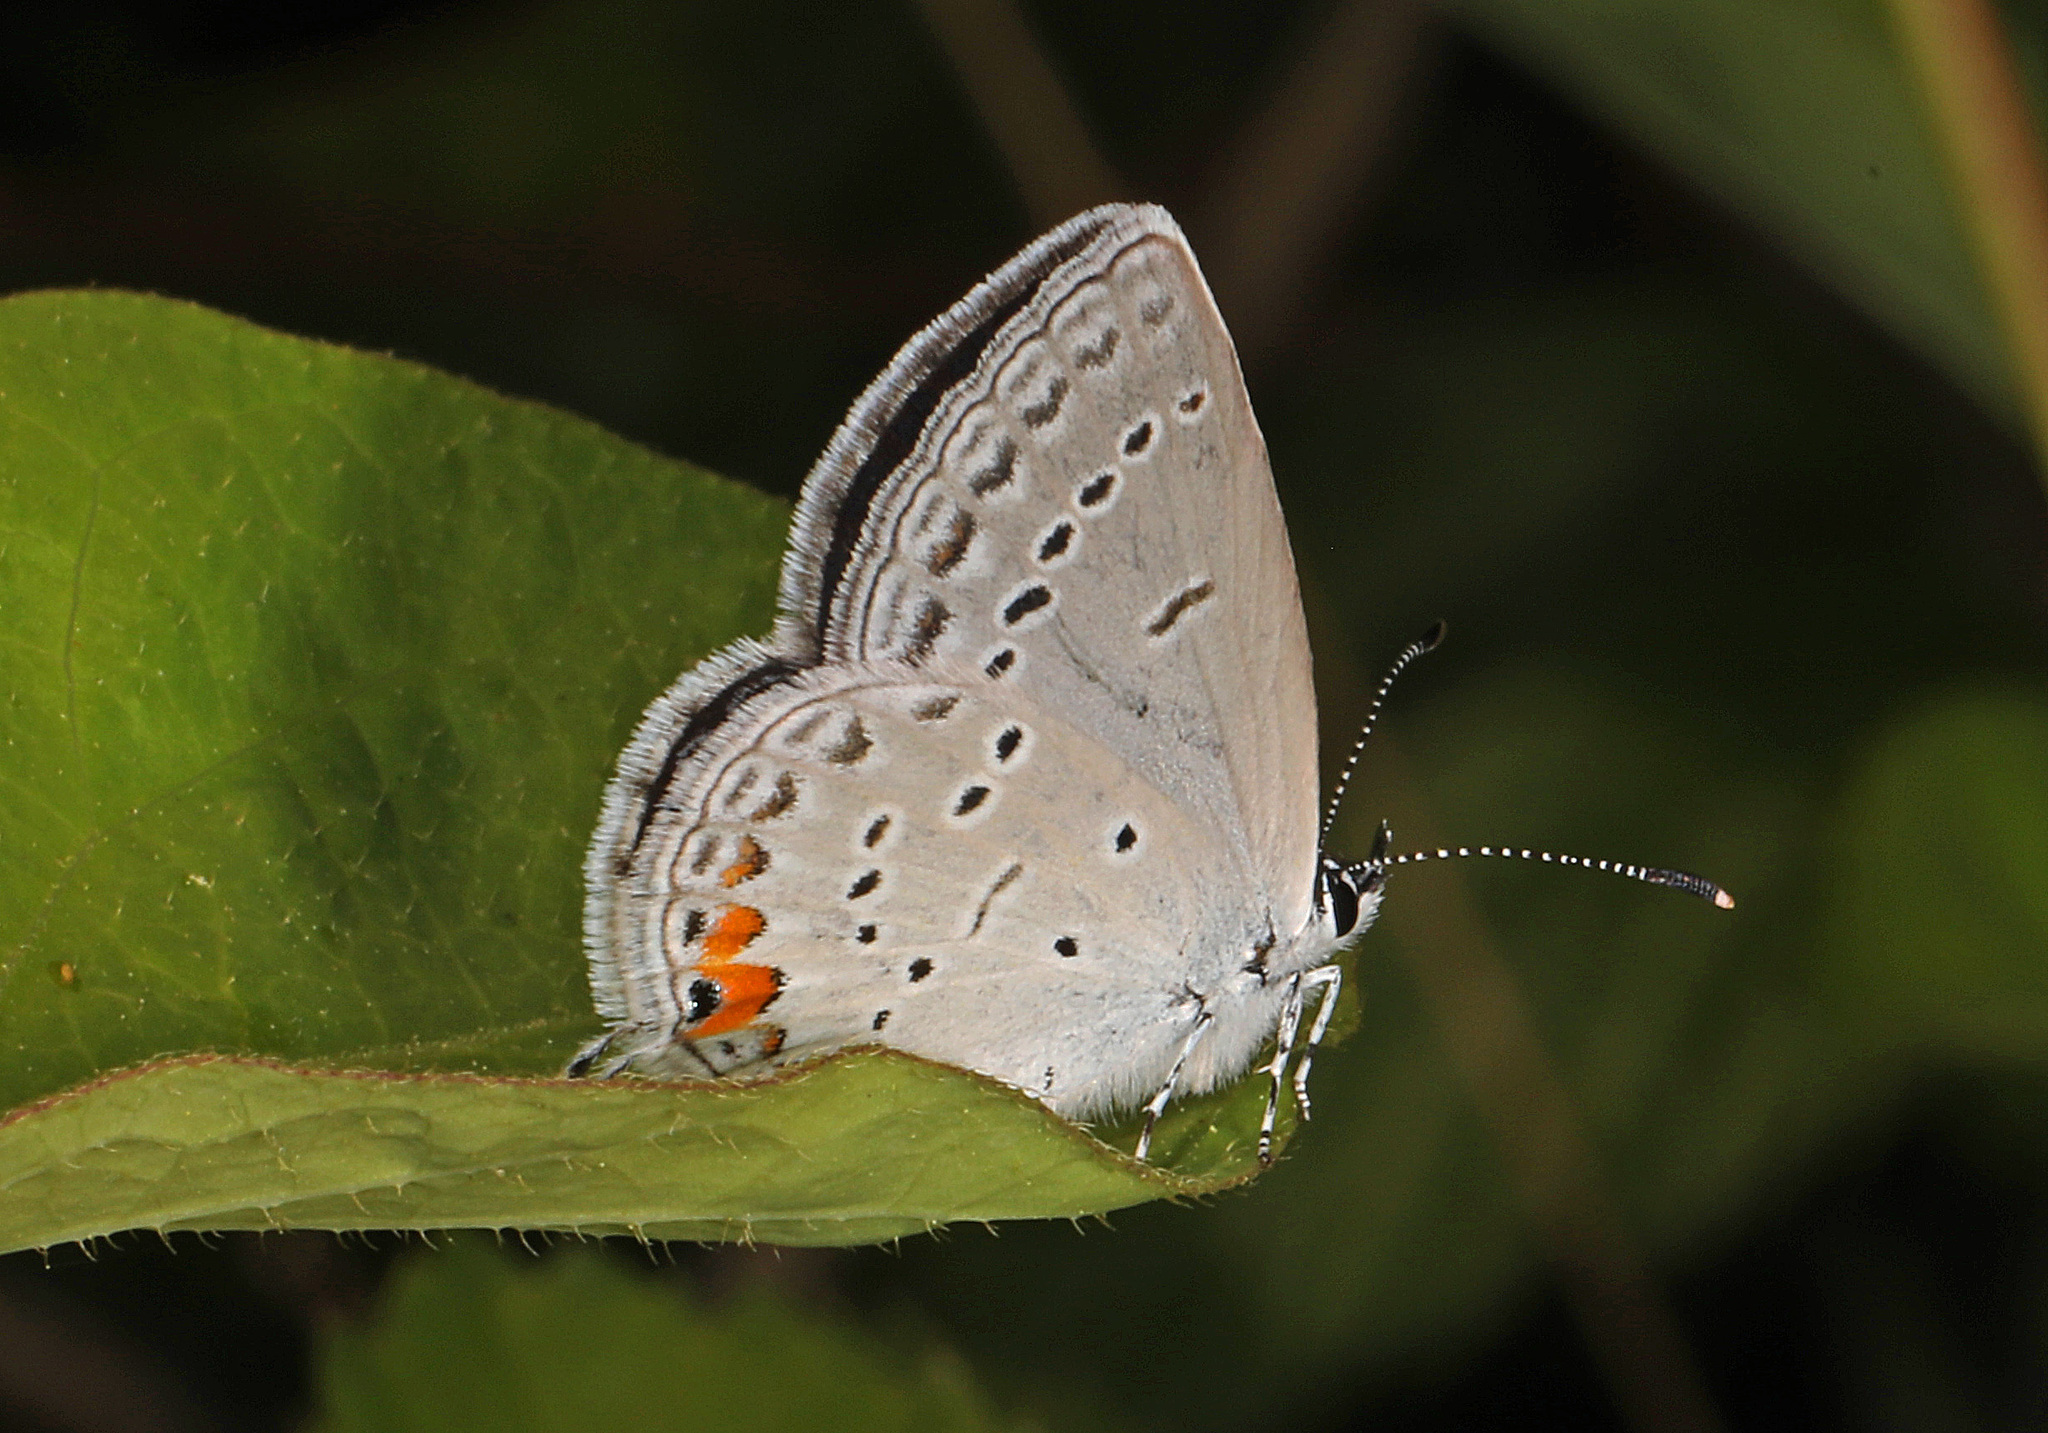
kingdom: Animalia
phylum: Arthropoda
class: Insecta
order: Lepidoptera
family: Lycaenidae
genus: Elkalyce
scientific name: Elkalyce comyntas
